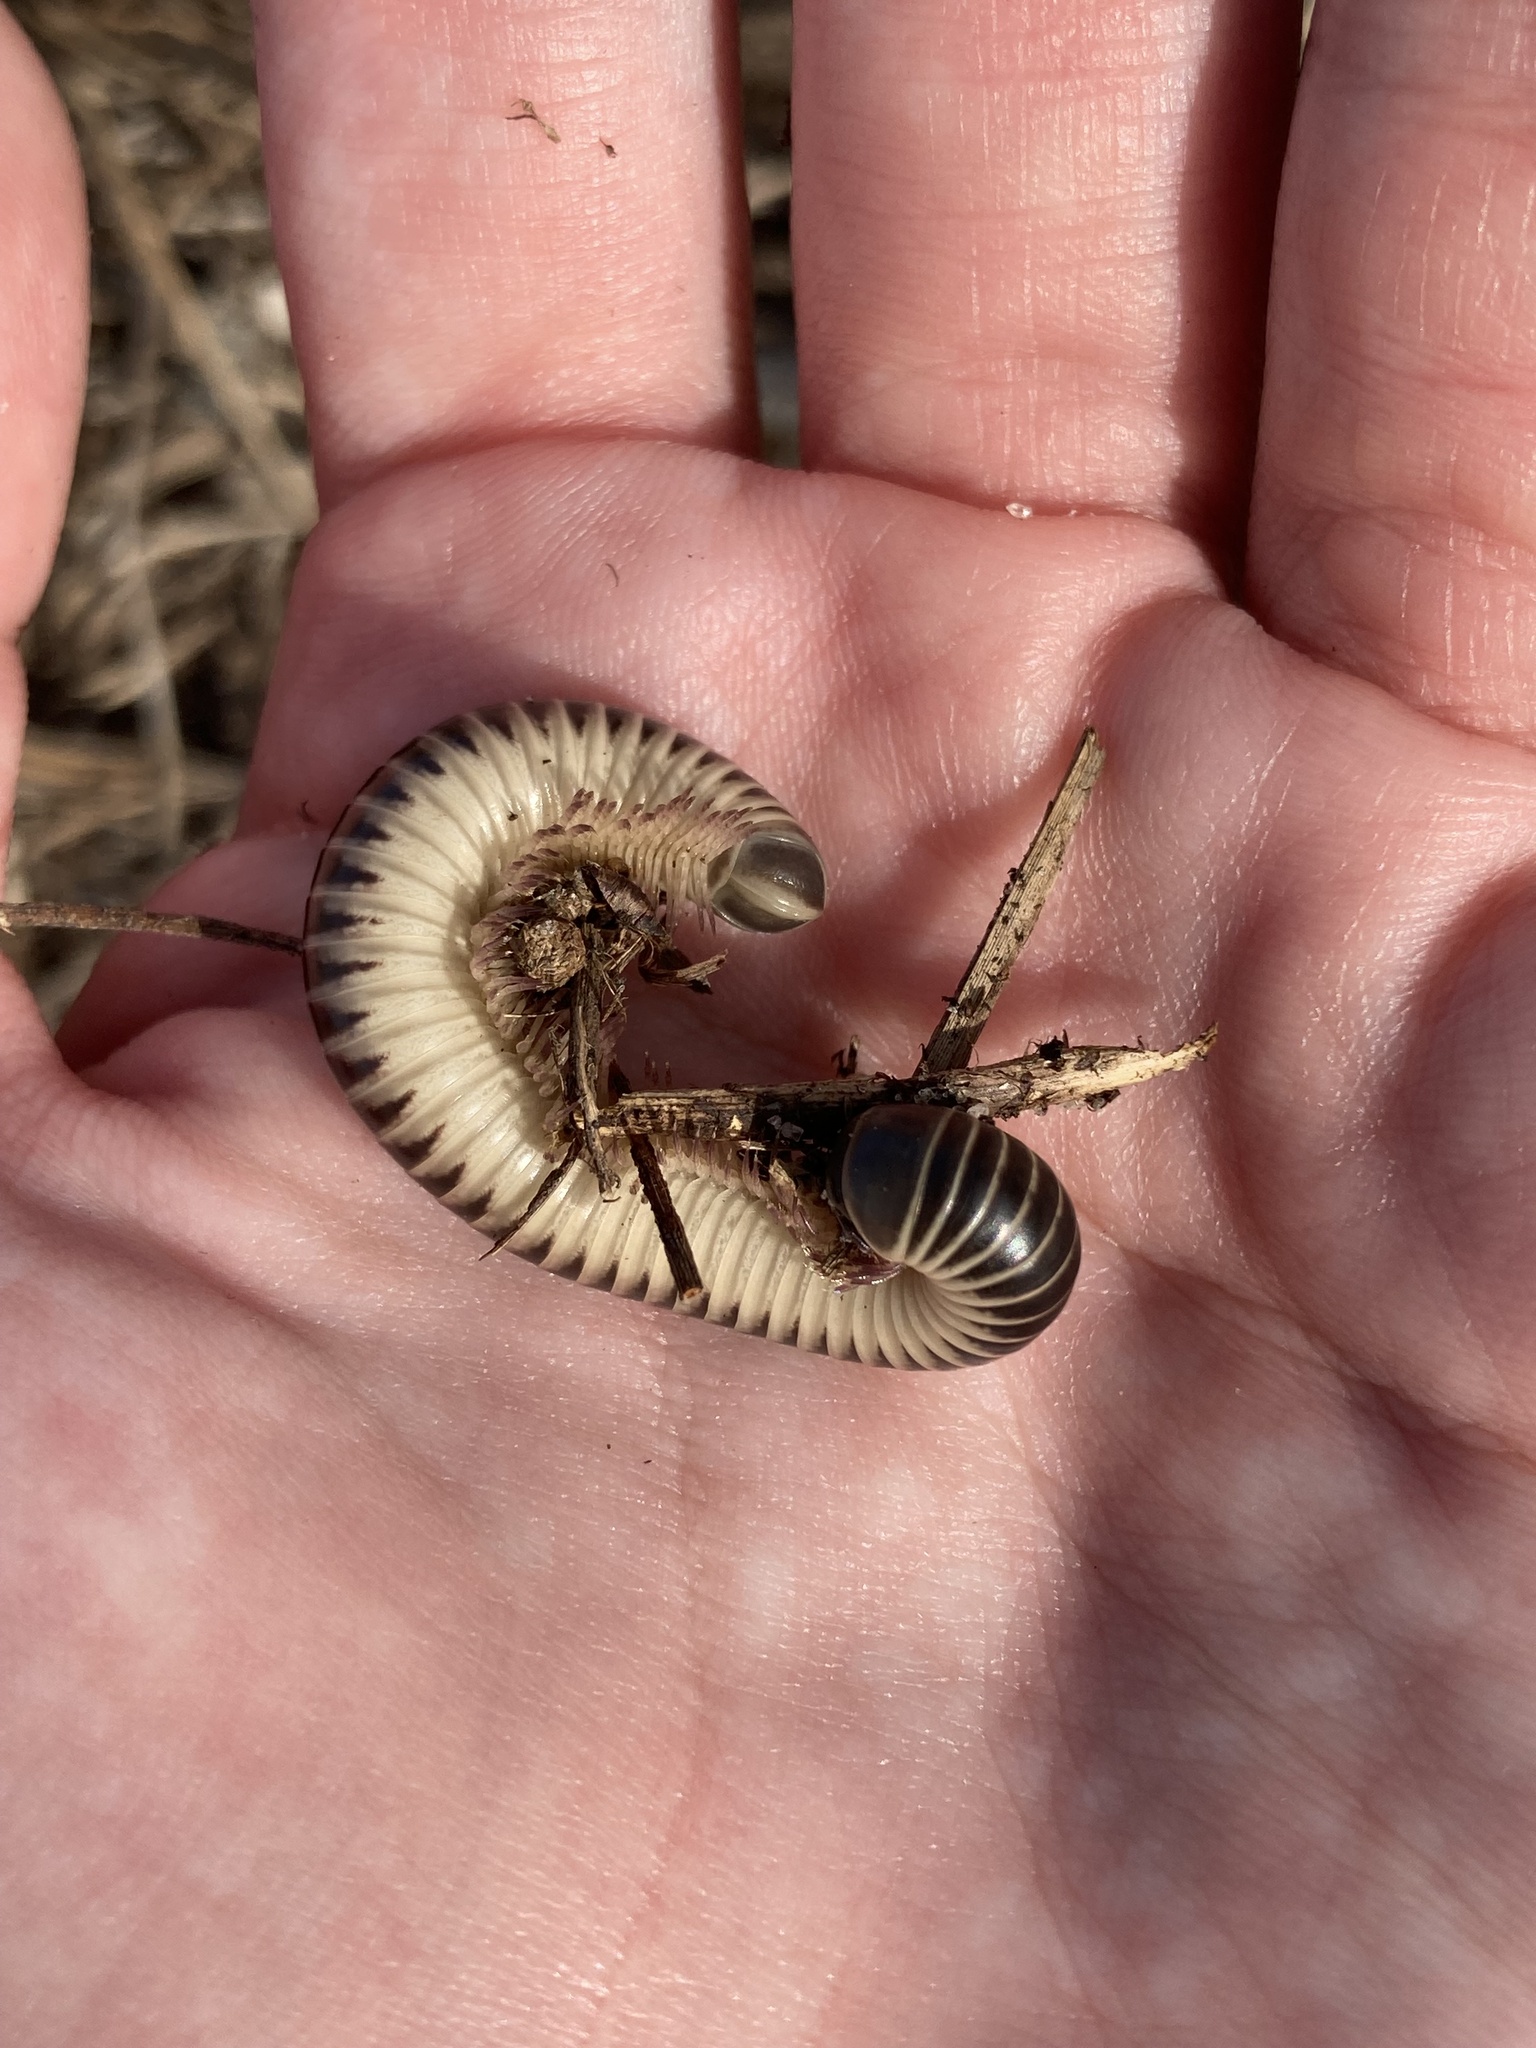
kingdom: Animalia
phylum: Arthropoda
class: Diplopoda
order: Spirobolida
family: Spirobolidae
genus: Chicobolus
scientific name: Chicobolus spinigerus
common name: Florida ivory millipede
